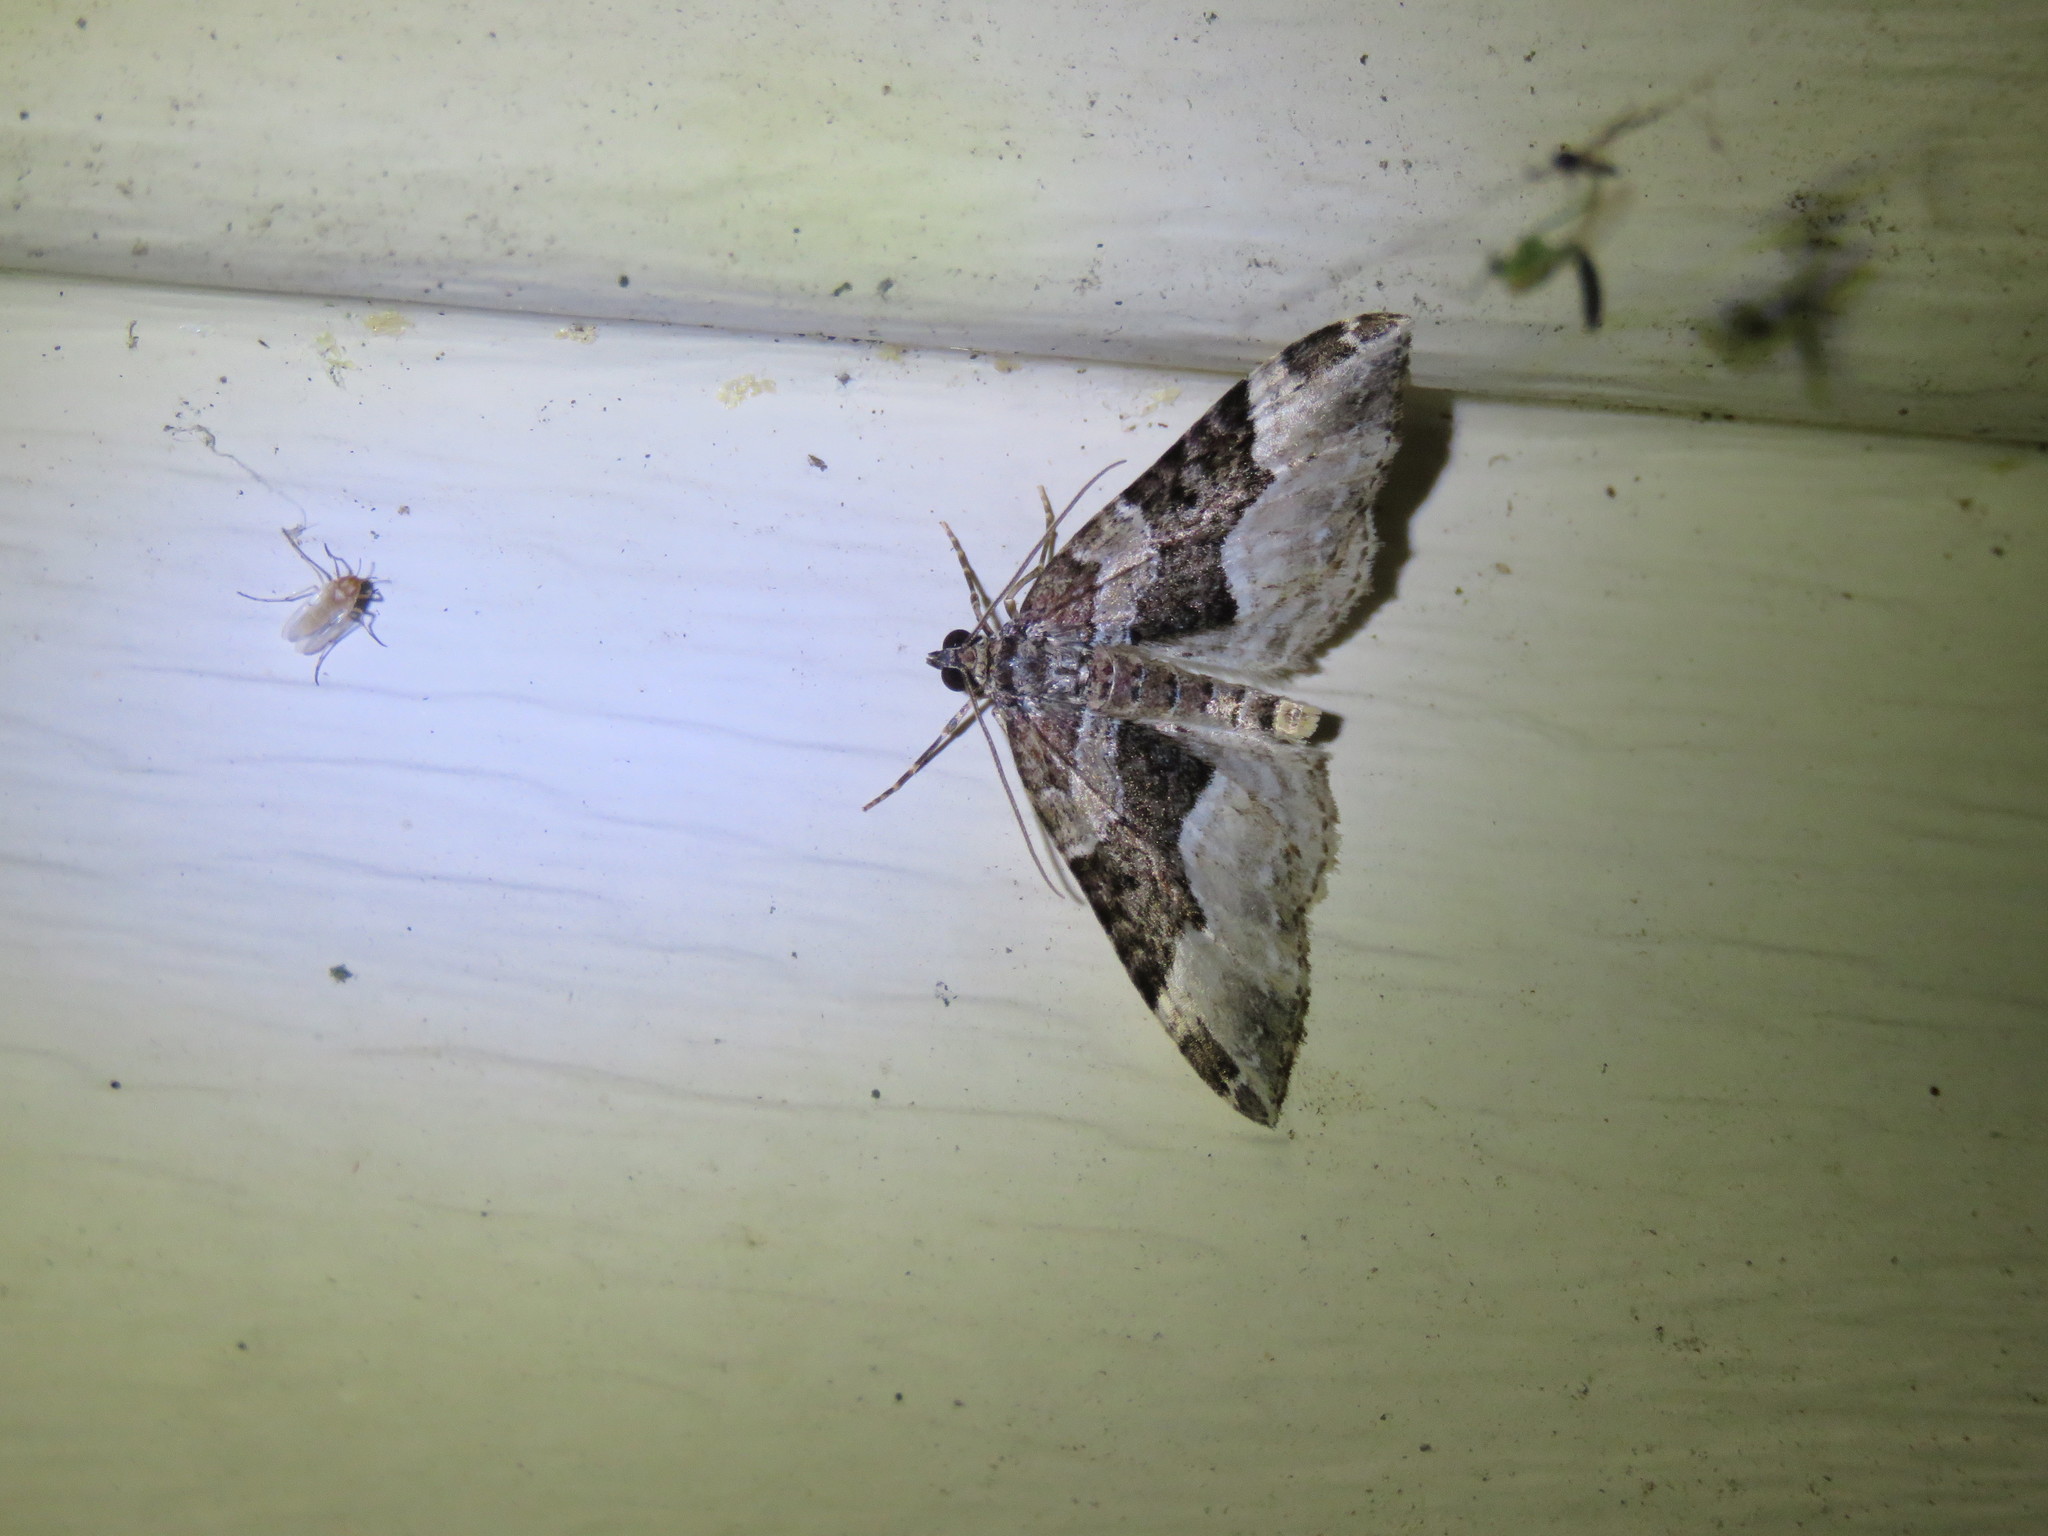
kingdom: Animalia
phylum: Arthropoda
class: Insecta
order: Lepidoptera
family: Geometridae
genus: Euphyia
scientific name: Euphyia intermediata
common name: Sharp-angled carpet
